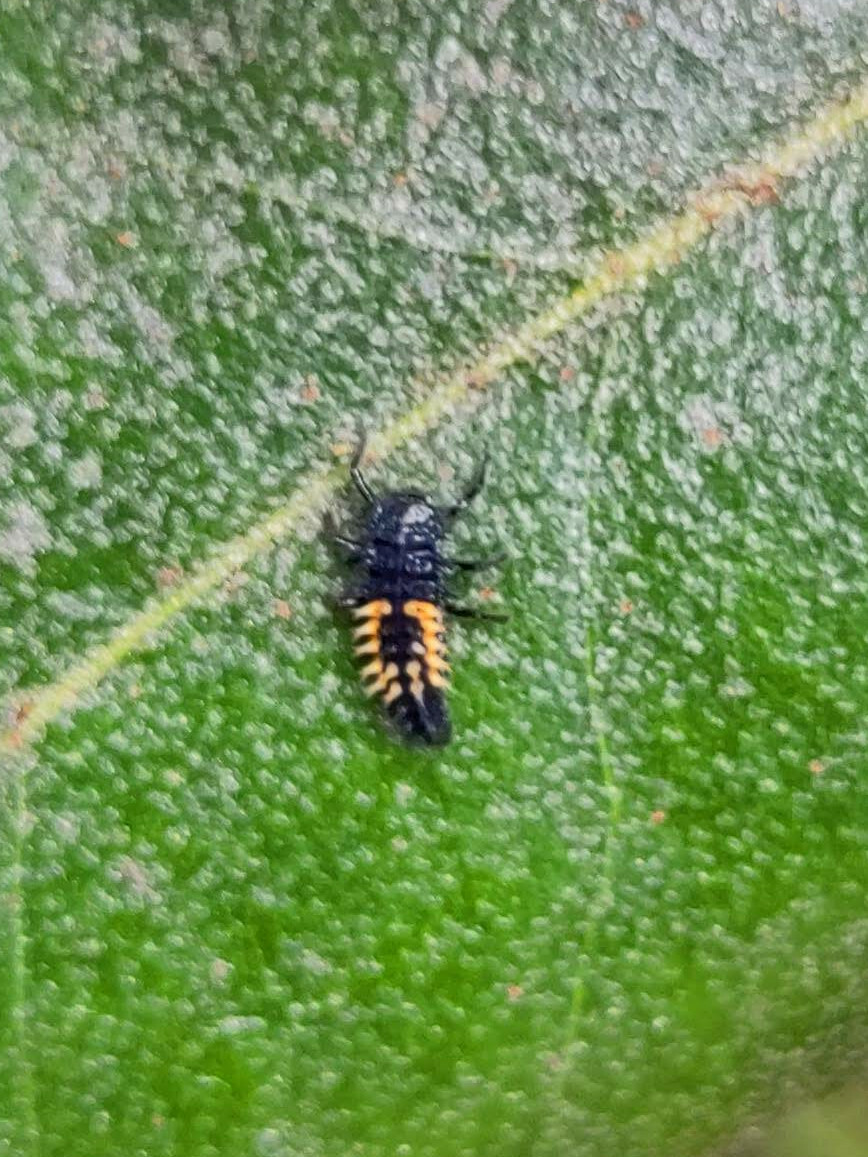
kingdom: Animalia
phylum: Arthropoda
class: Insecta
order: Coleoptera
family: Coccinellidae
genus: Harmonia
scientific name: Harmonia axyridis
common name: Harlequin ladybird
